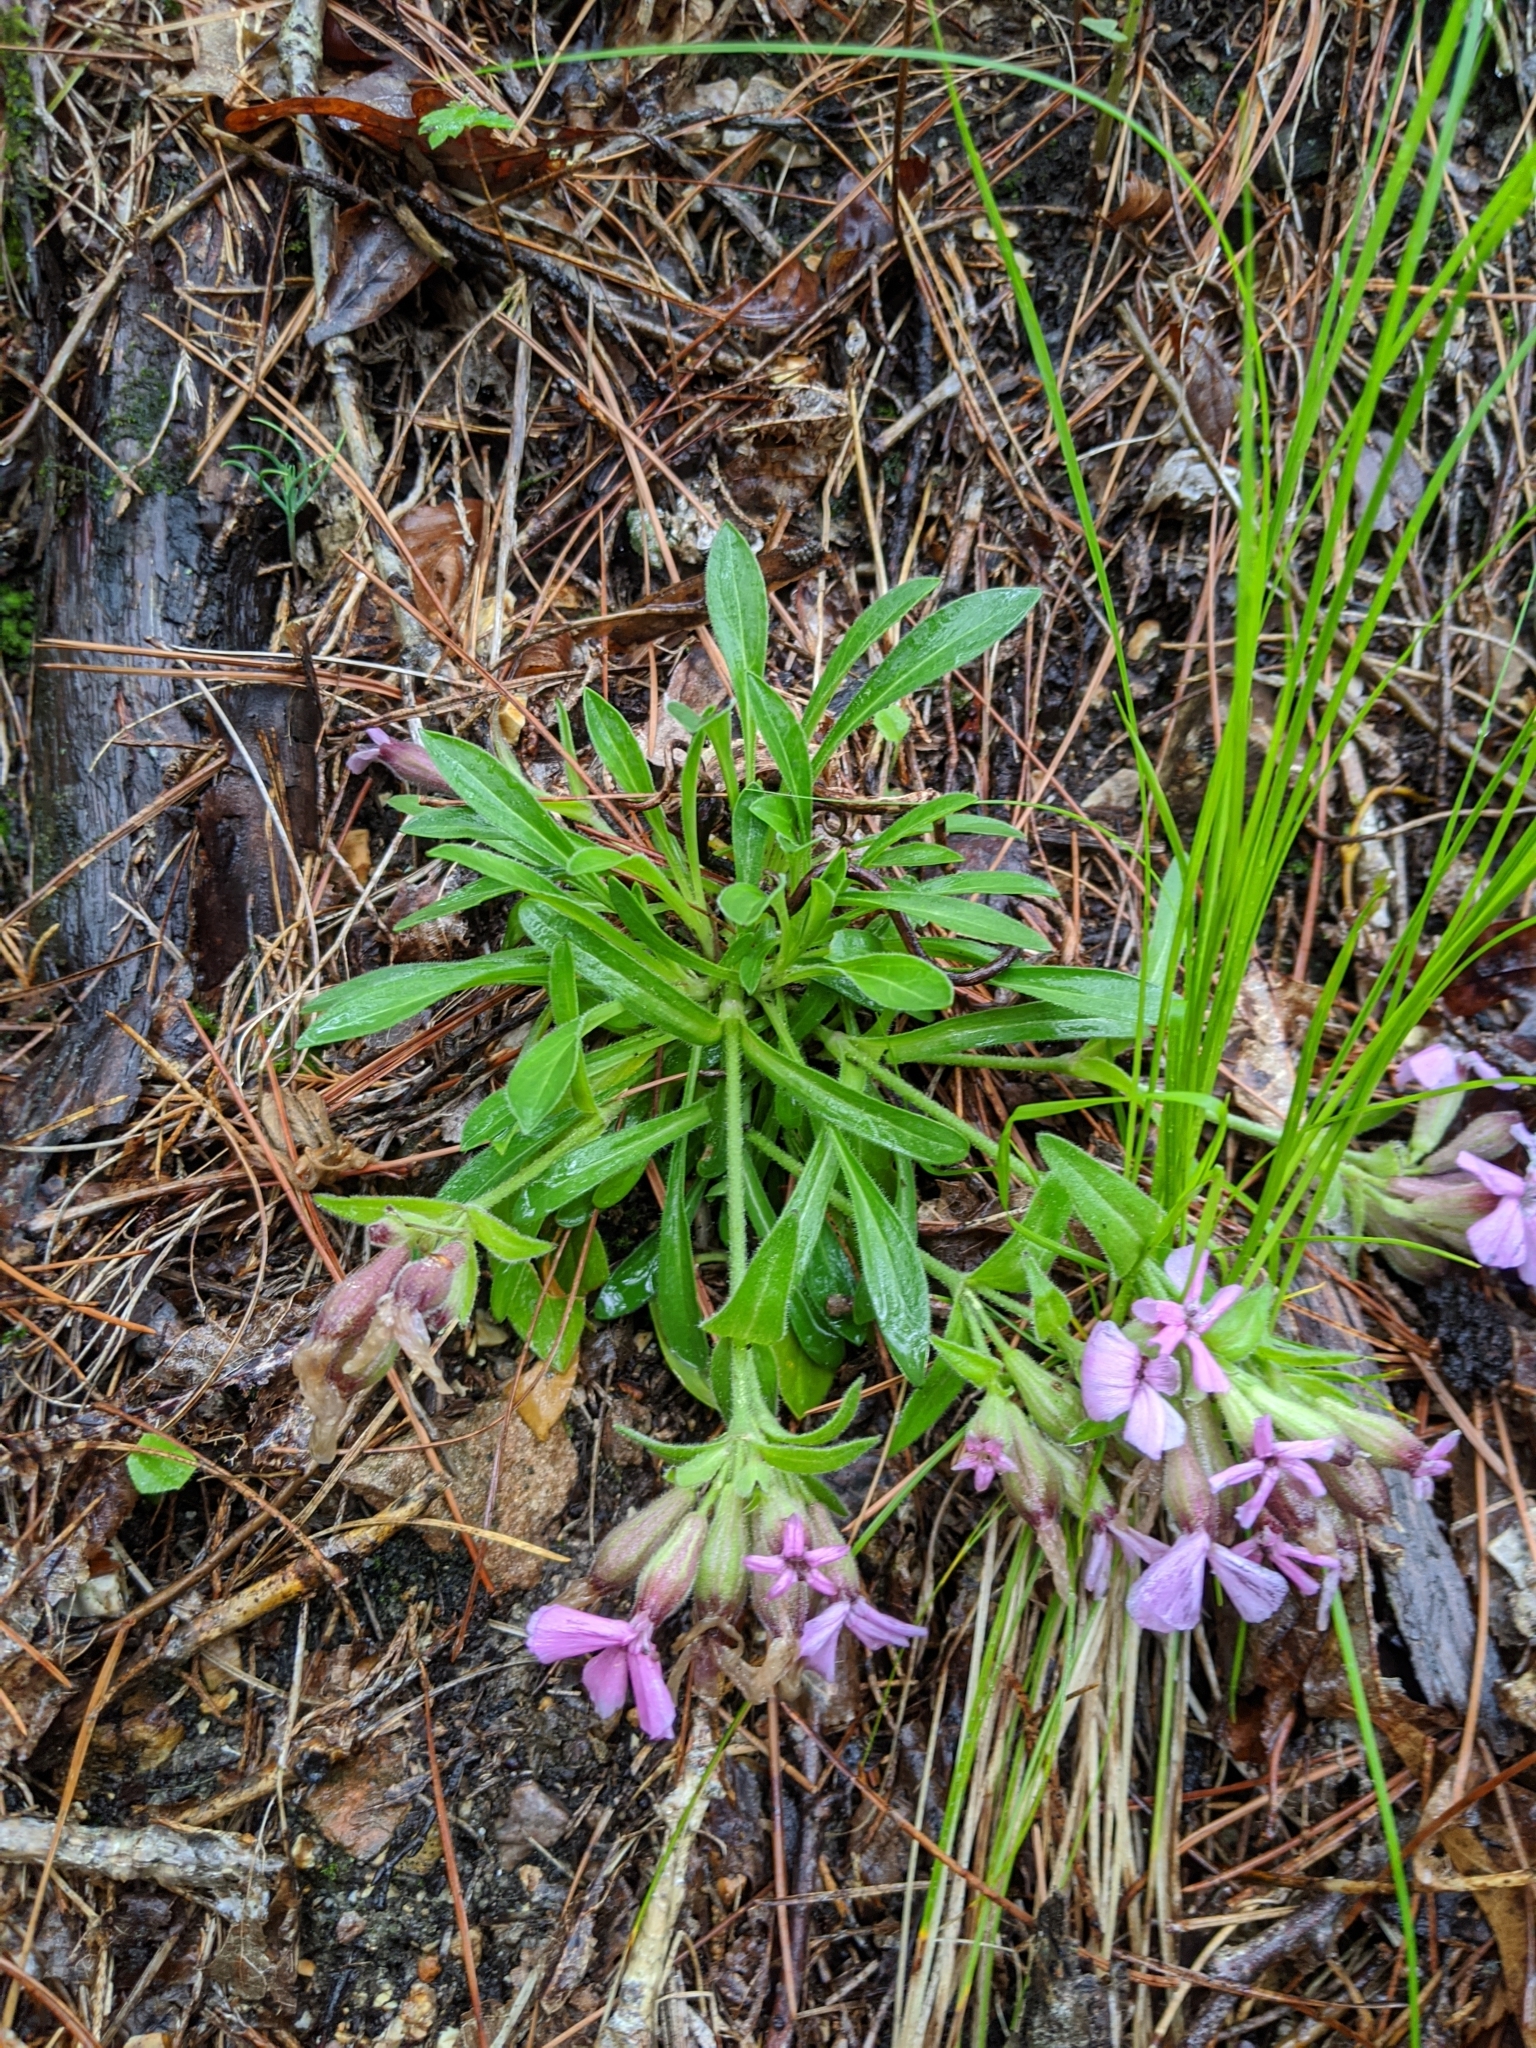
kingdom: Plantae
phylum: Tracheophyta
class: Magnoliopsida
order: Caryophyllales
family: Caryophyllaceae
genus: Silene
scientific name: Silene caroliniana
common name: Sticky catchfly
